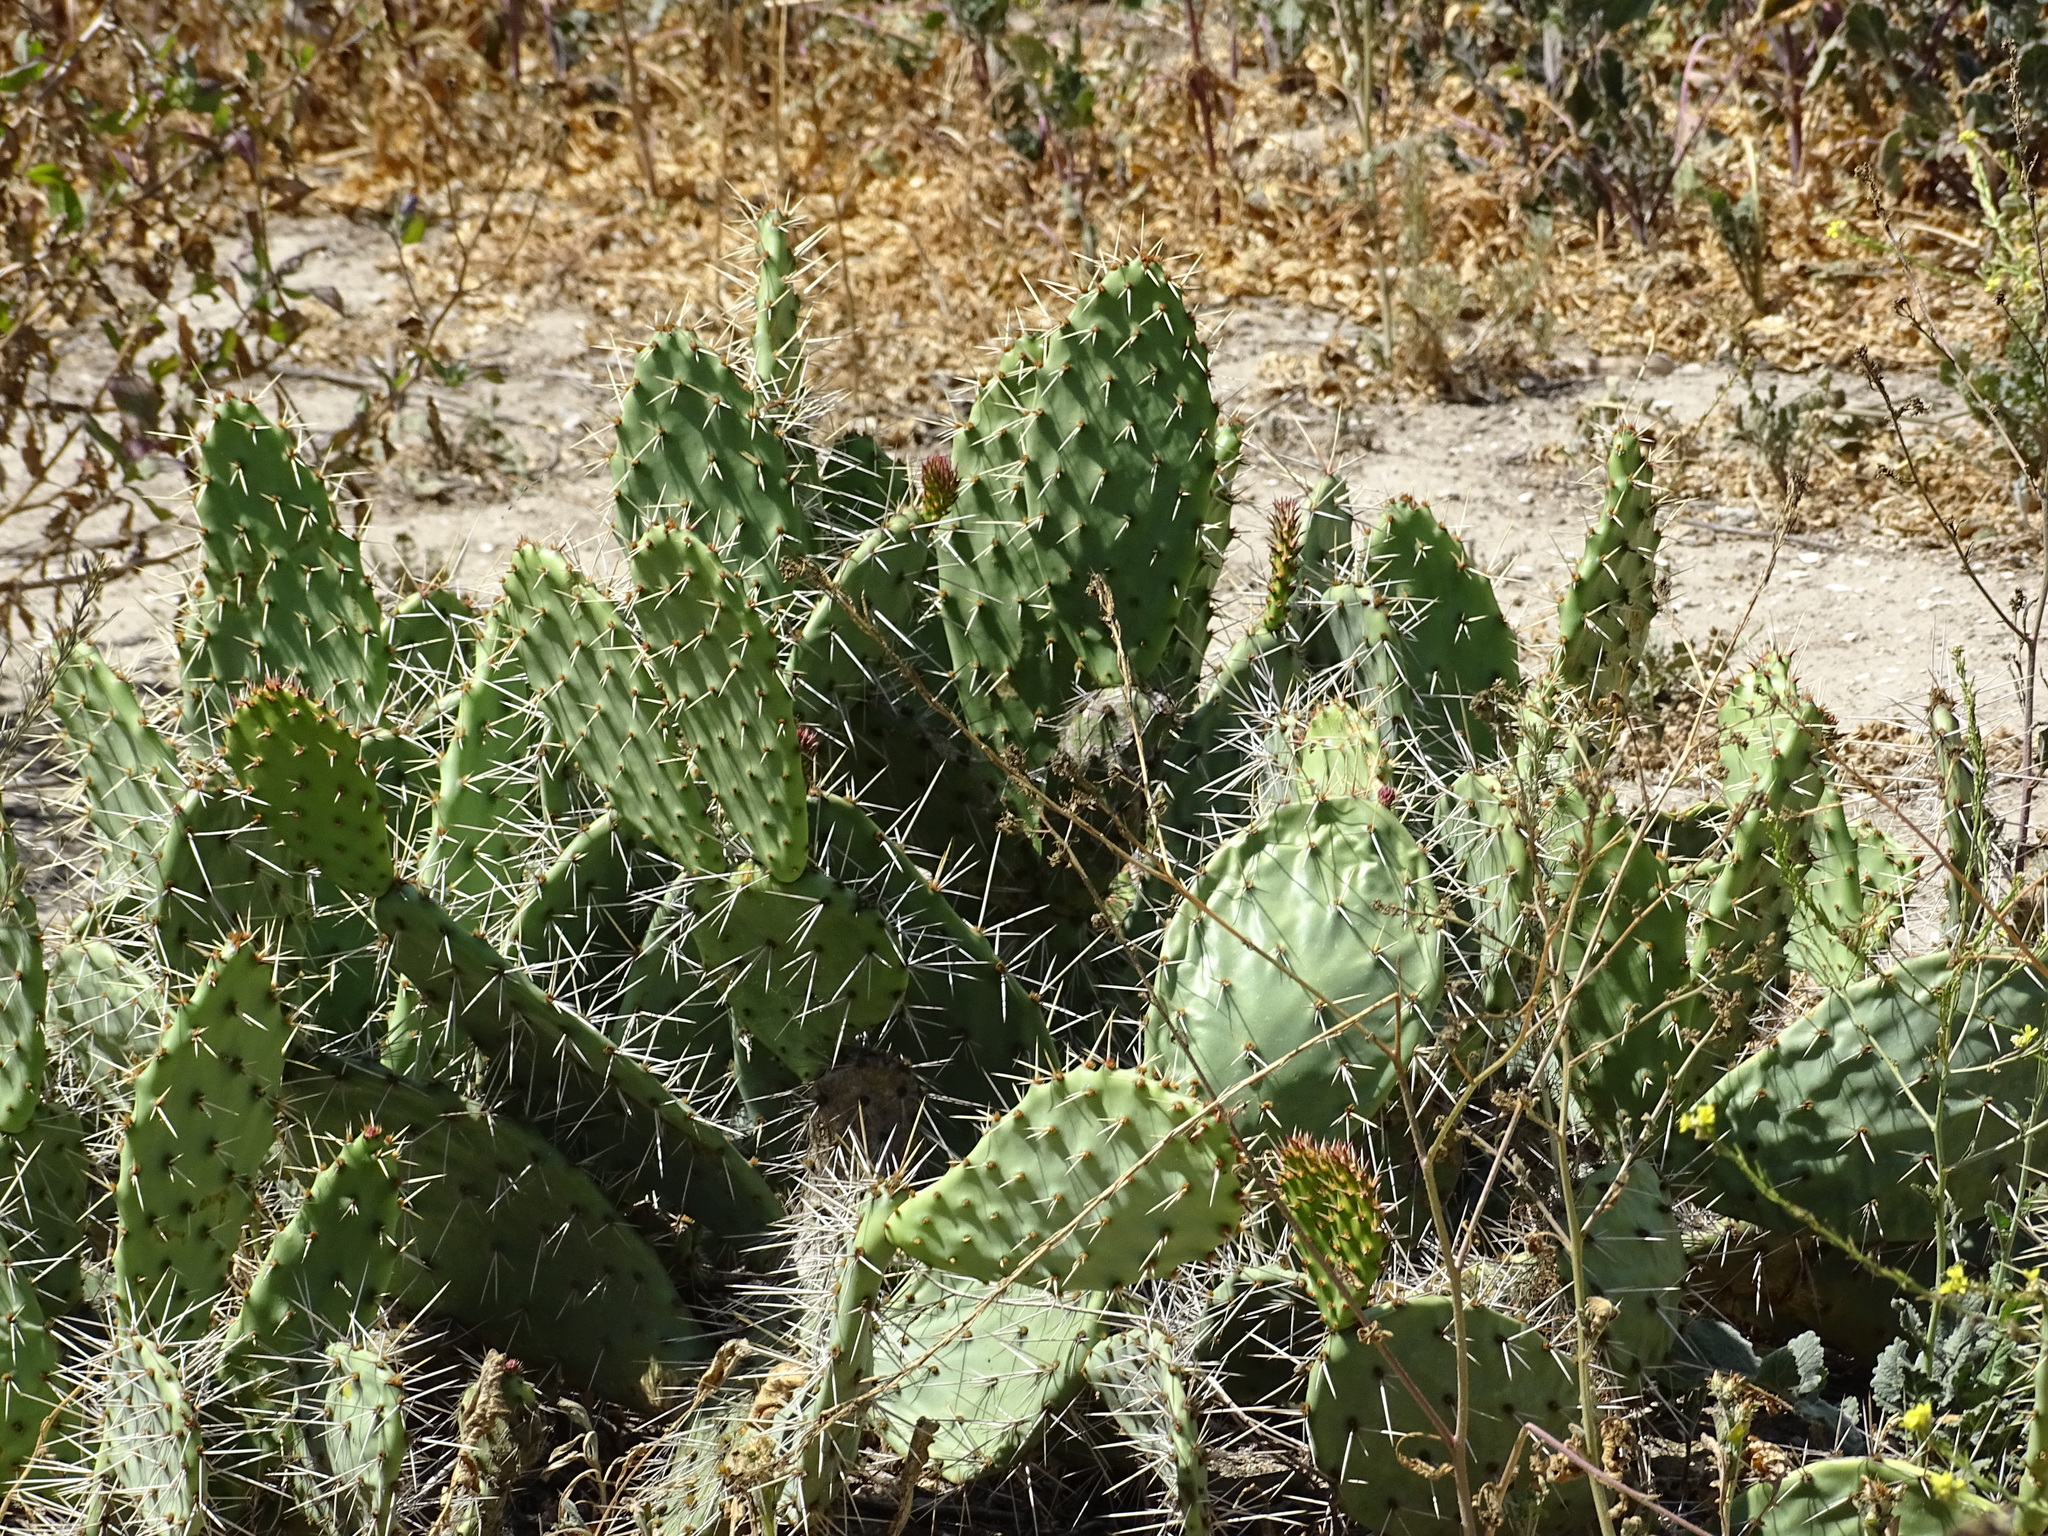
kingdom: Plantae
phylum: Tracheophyta
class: Magnoliopsida
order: Caryophyllales
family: Cactaceae
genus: Opuntia
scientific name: Opuntia littoralis
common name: Coastal prickly-pear
